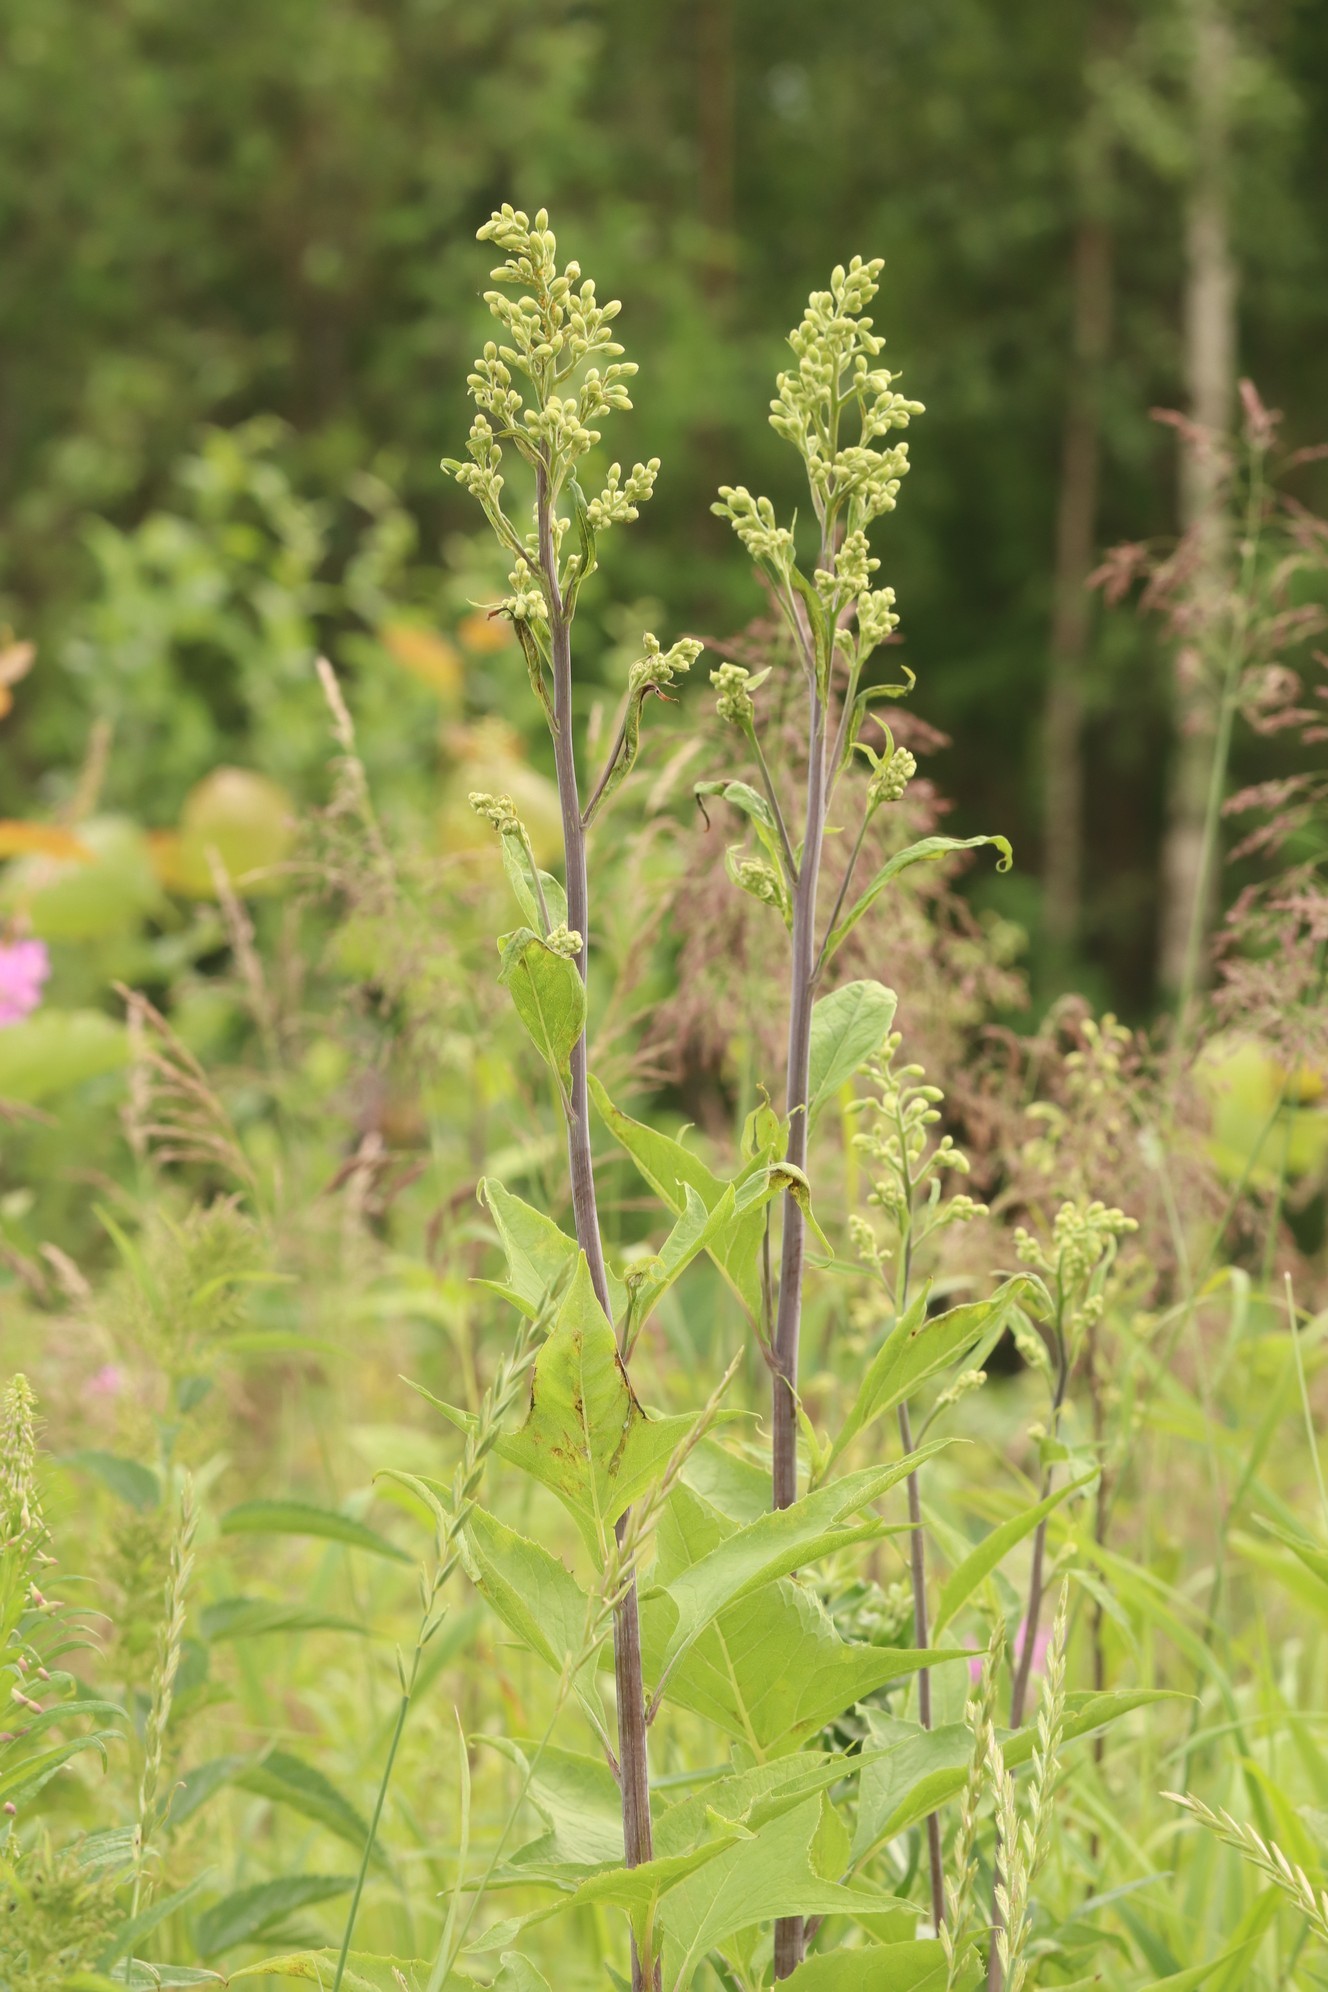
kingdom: Plantae
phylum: Tracheophyta
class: Magnoliopsida
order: Asterales
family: Asteraceae
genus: Parasenecio
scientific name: Parasenecio hastatus
